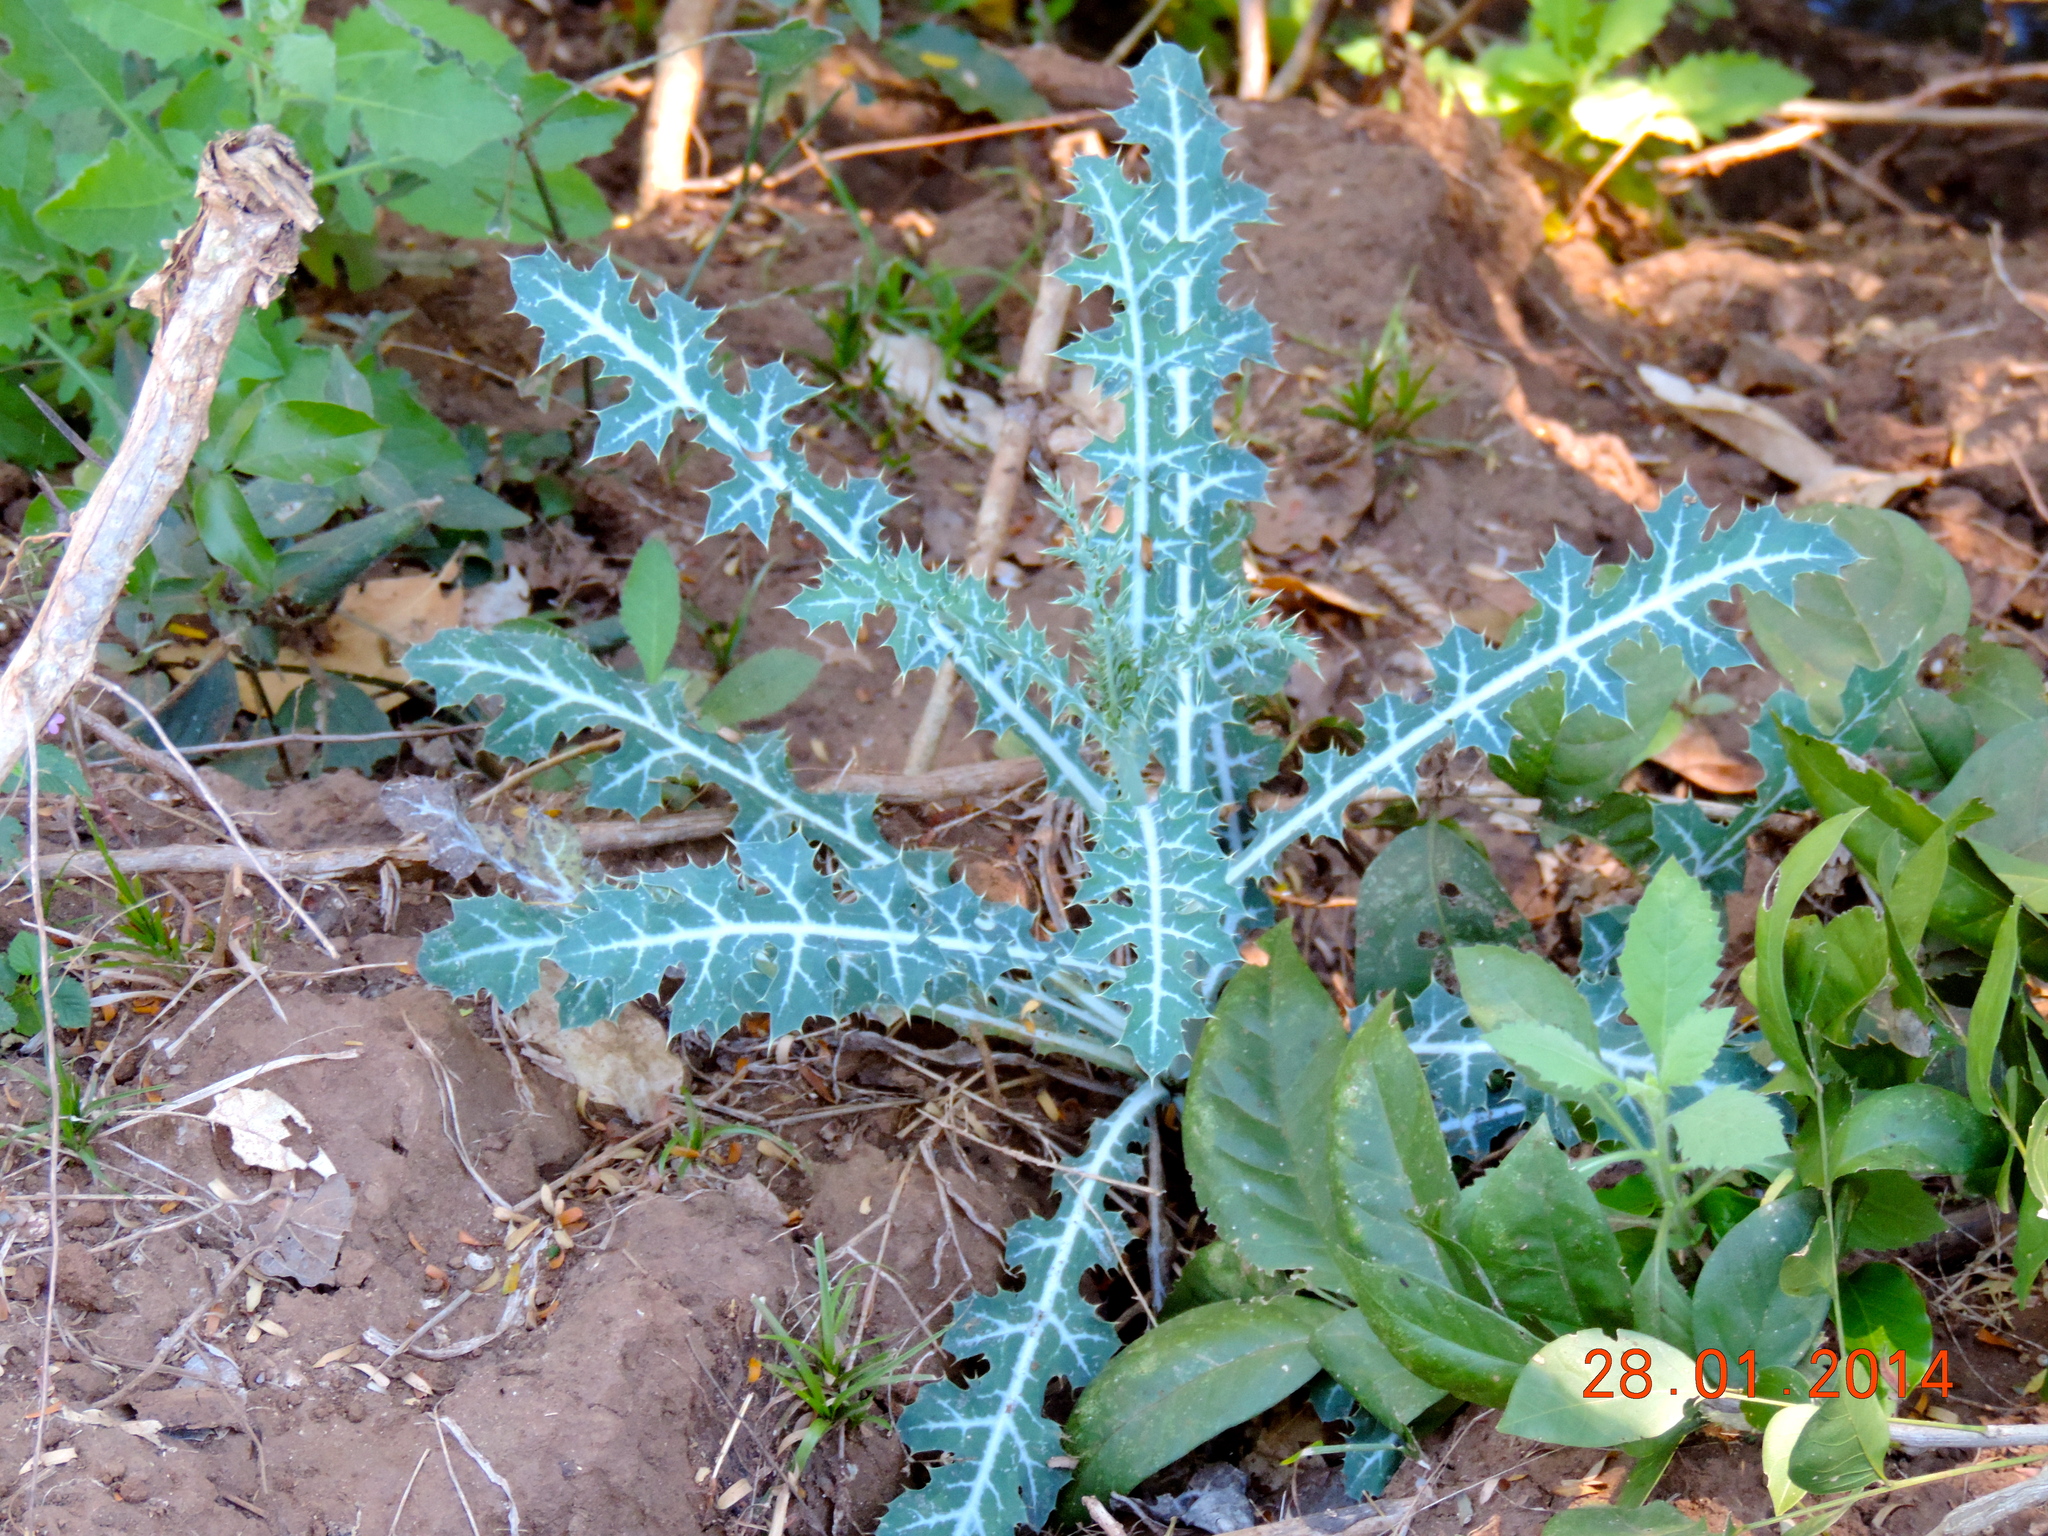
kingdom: Plantae
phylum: Tracheophyta
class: Magnoliopsida
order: Ranunculales
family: Papaveraceae
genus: Argemone
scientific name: Argemone
